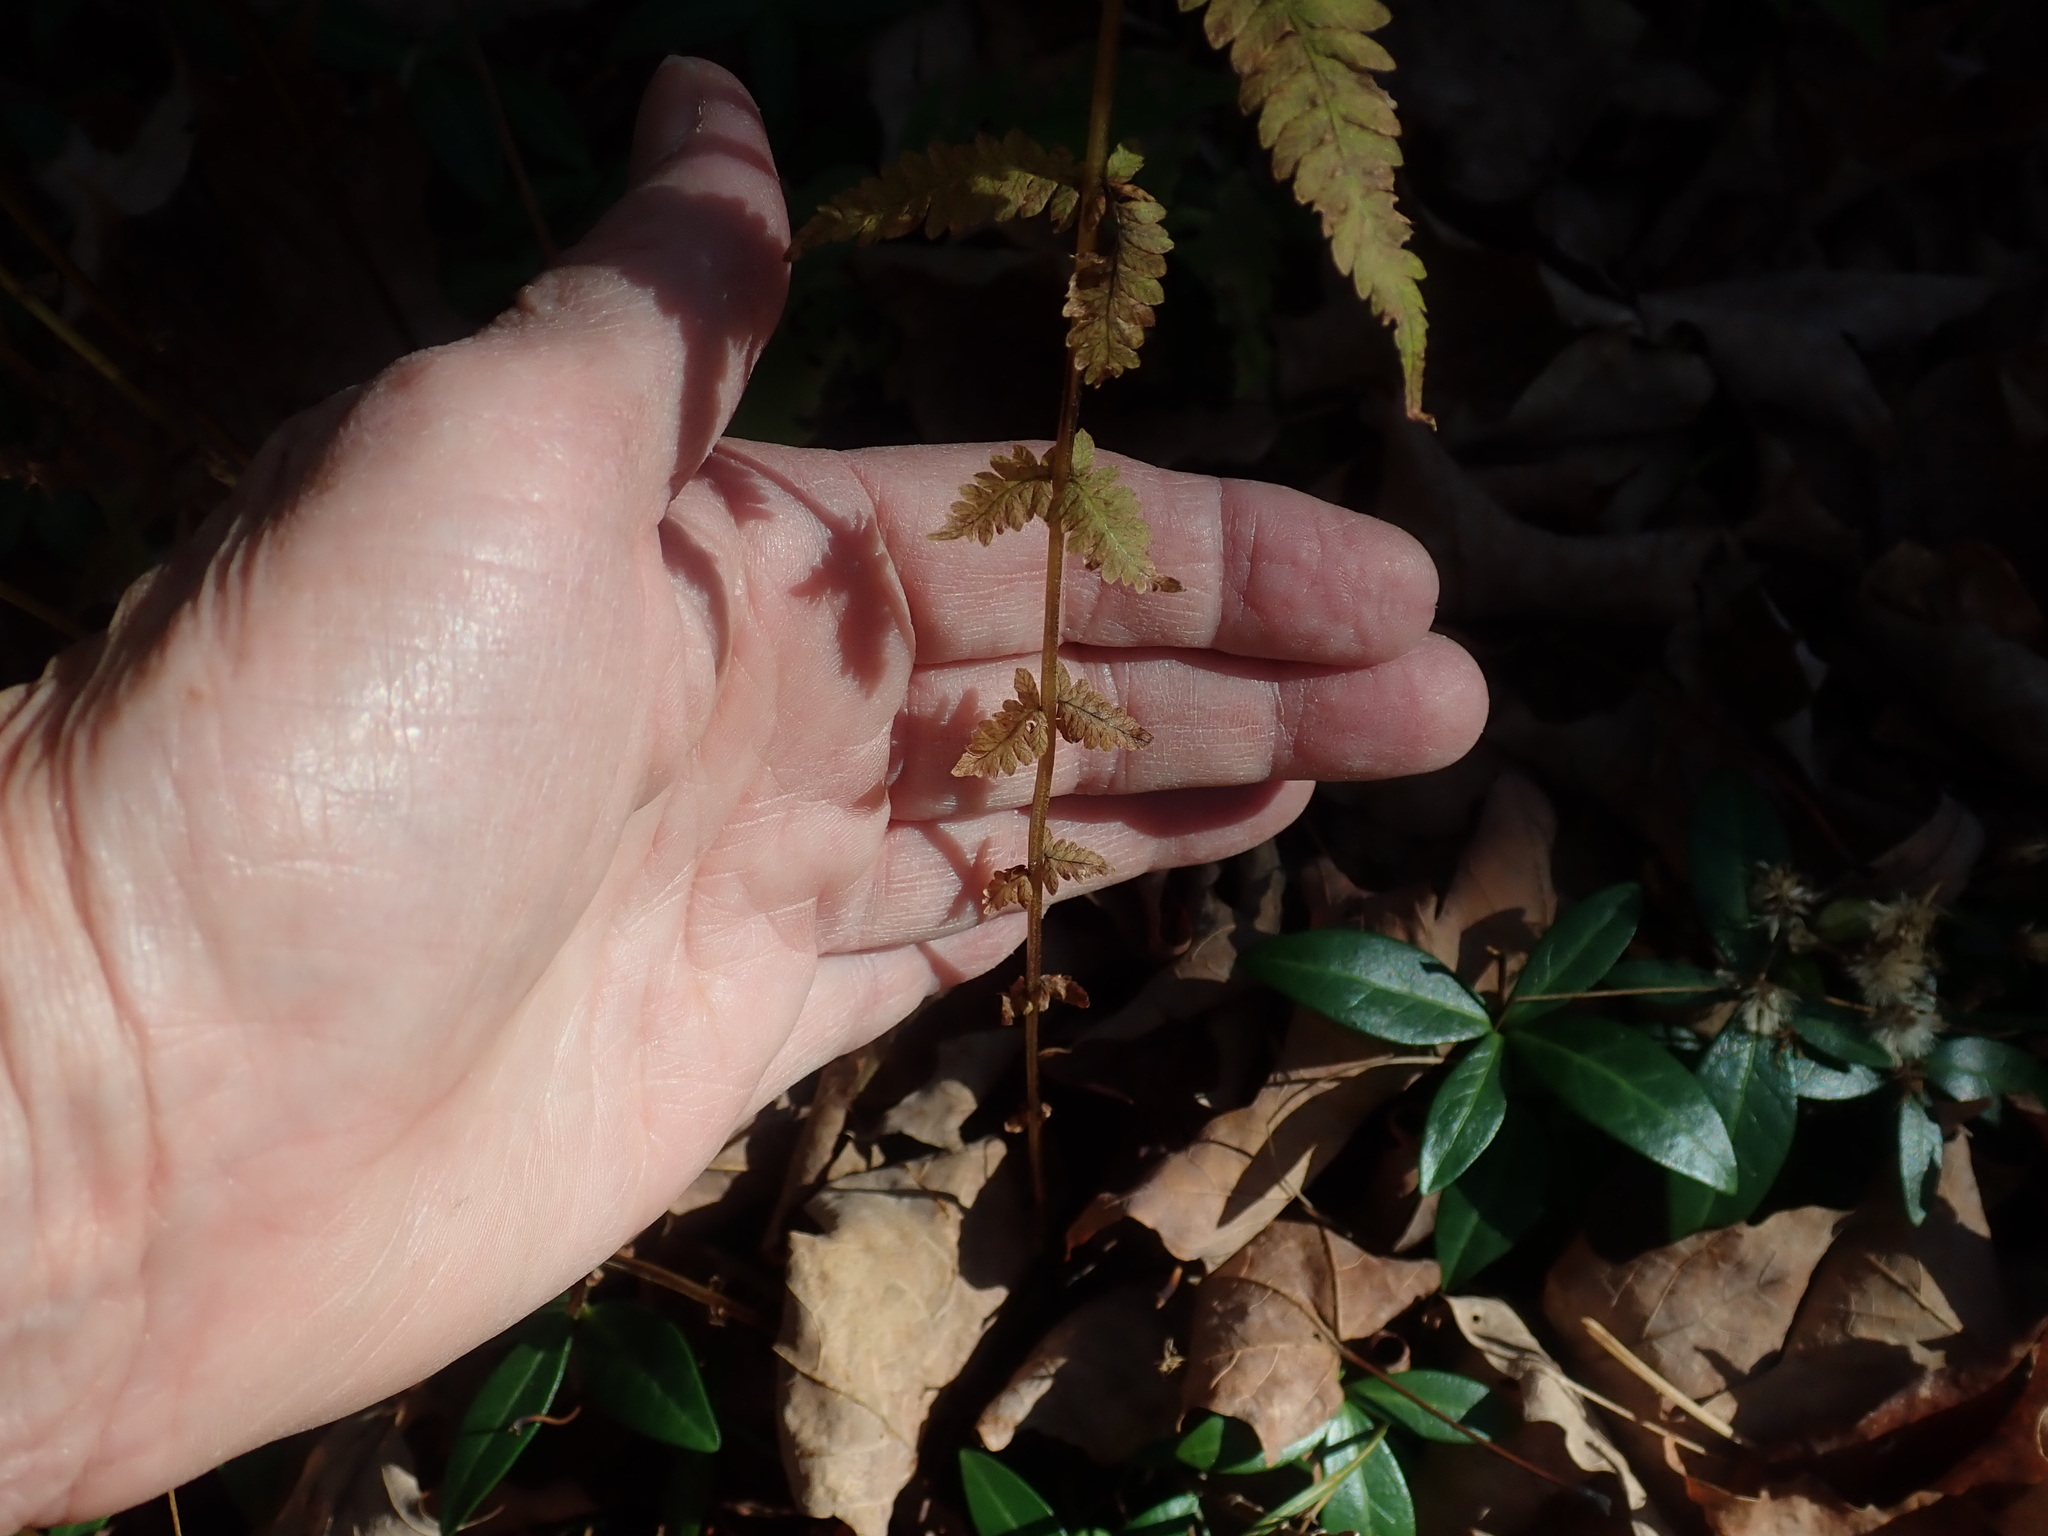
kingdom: Plantae
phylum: Tracheophyta
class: Polypodiopsida
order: Polypodiales
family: Thelypteridaceae
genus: Amauropelta
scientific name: Amauropelta noveboracensis
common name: New york fern
